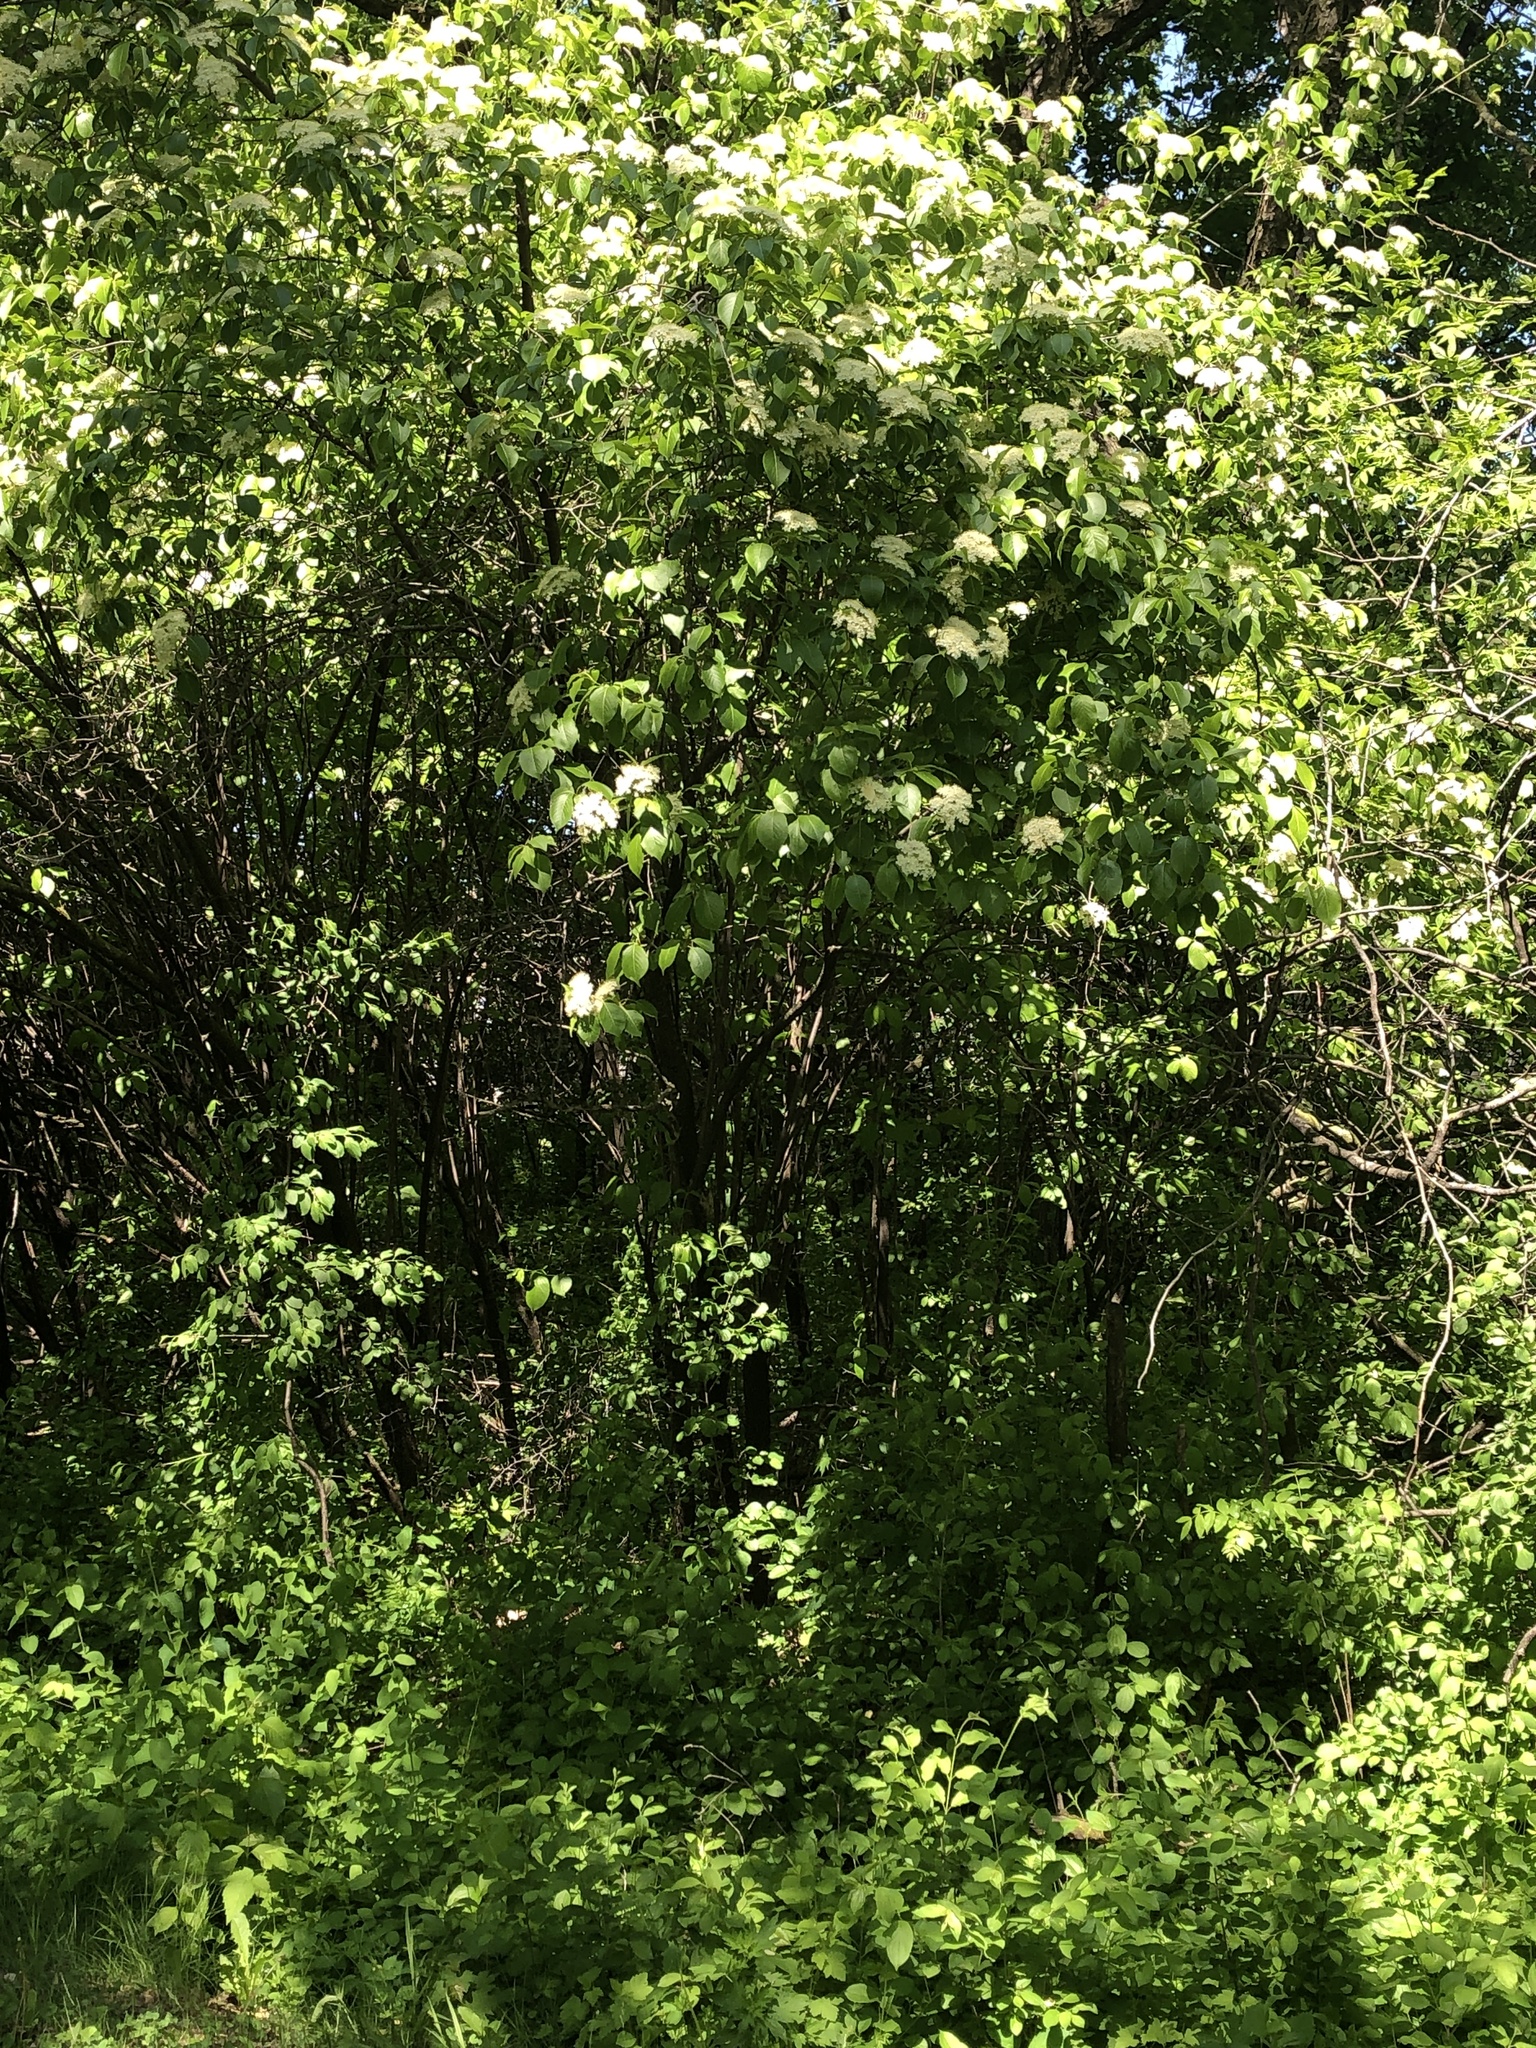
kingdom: Plantae
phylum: Tracheophyta
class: Magnoliopsida
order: Dipsacales
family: Viburnaceae
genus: Viburnum
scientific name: Viburnum lentago
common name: Black haw
